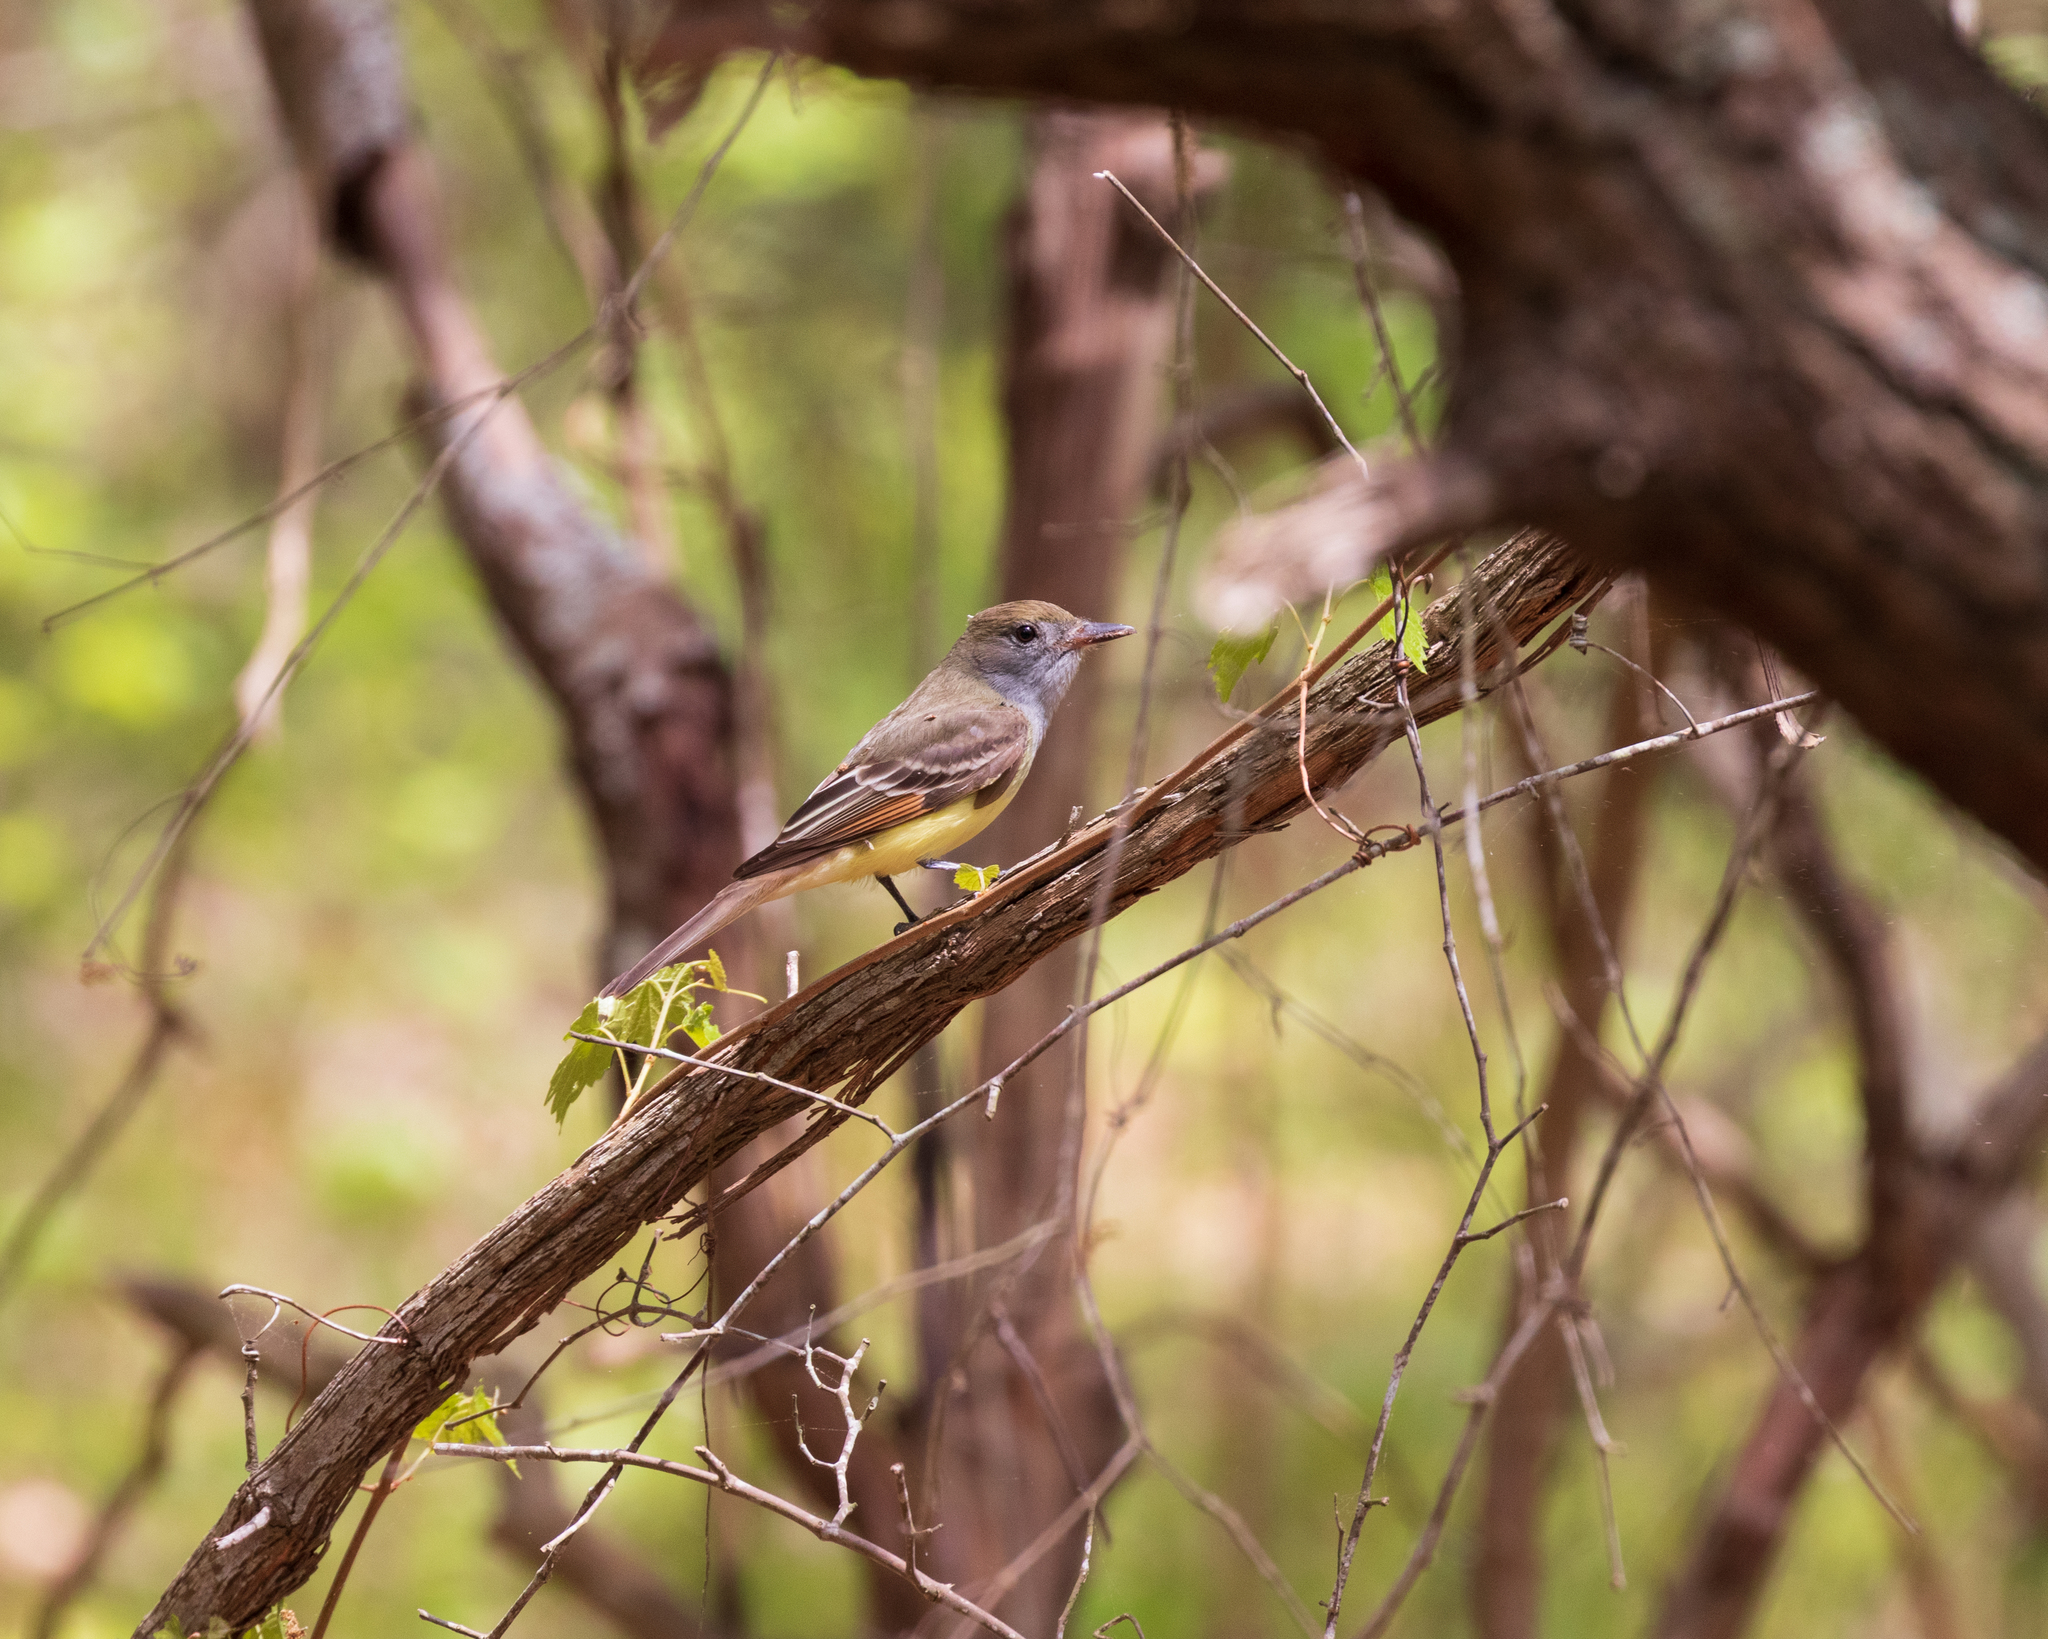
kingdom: Animalia
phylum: Chordata
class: Aves
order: Passeriformes
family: Tyrannidae
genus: Myiarchus
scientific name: Myiarchus crinitus
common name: Great crested flycatcher
